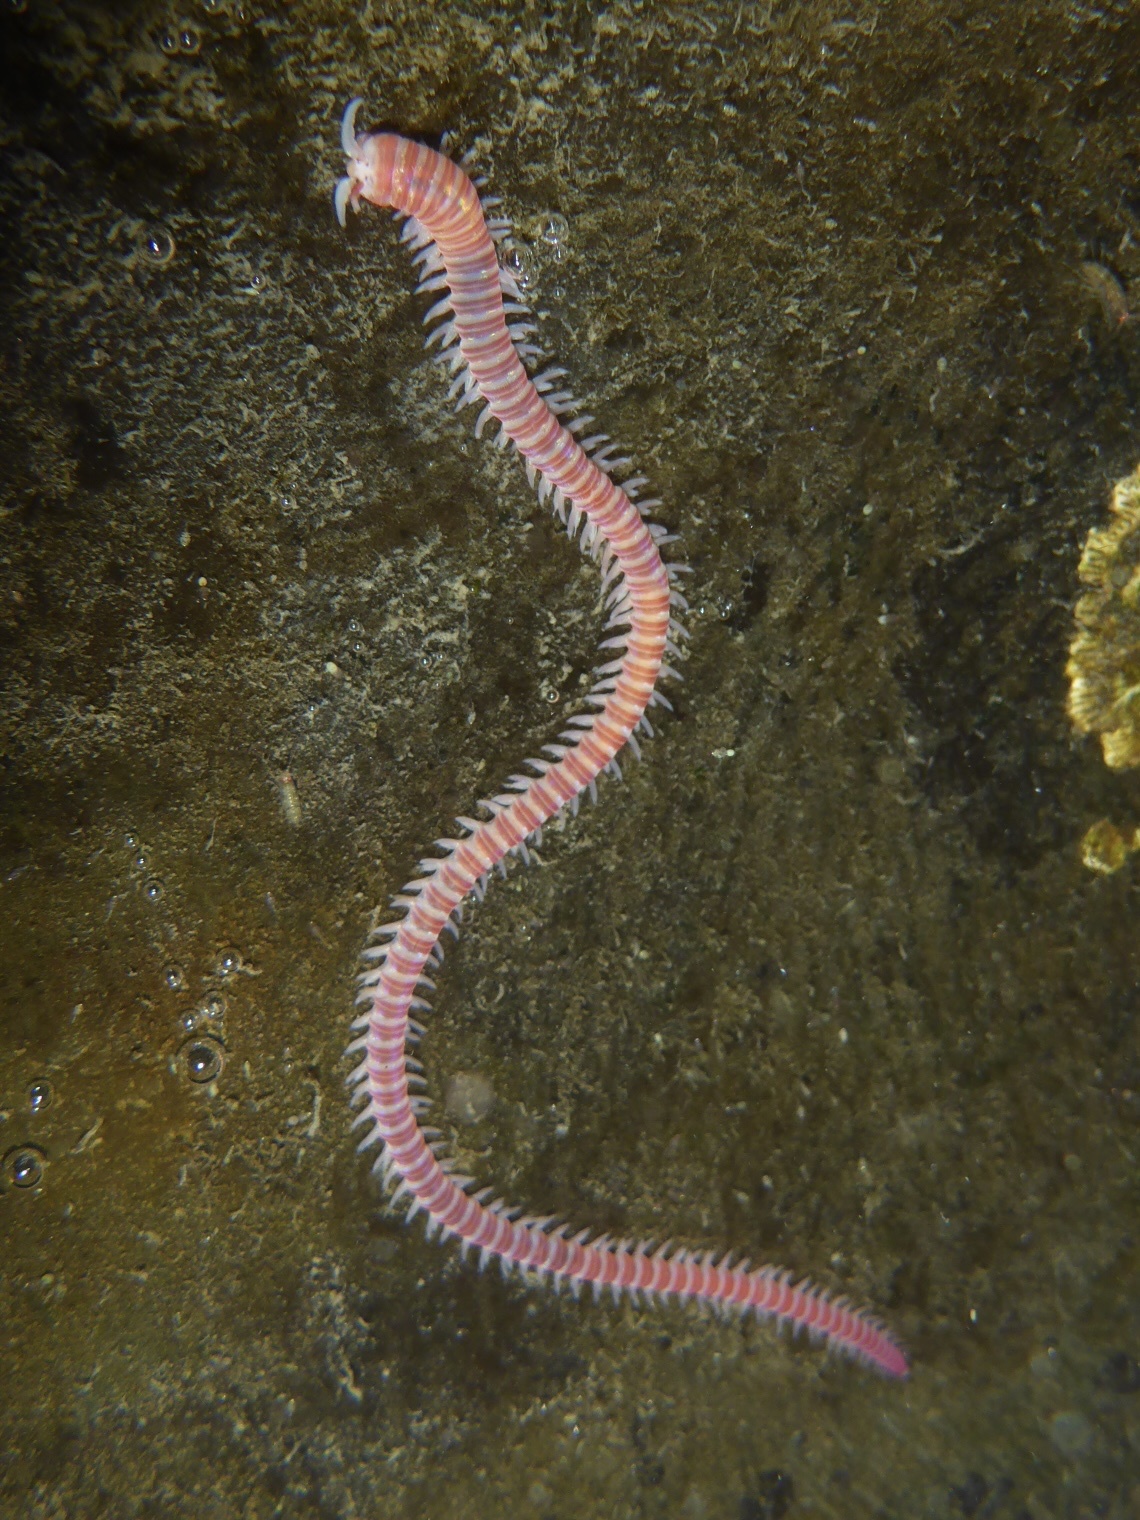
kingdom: Animalia
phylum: Annelida
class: Polychaeta
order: Eunicida
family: Dorvilleidae
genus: Dorvillea
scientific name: Dorvillea moniloceras
